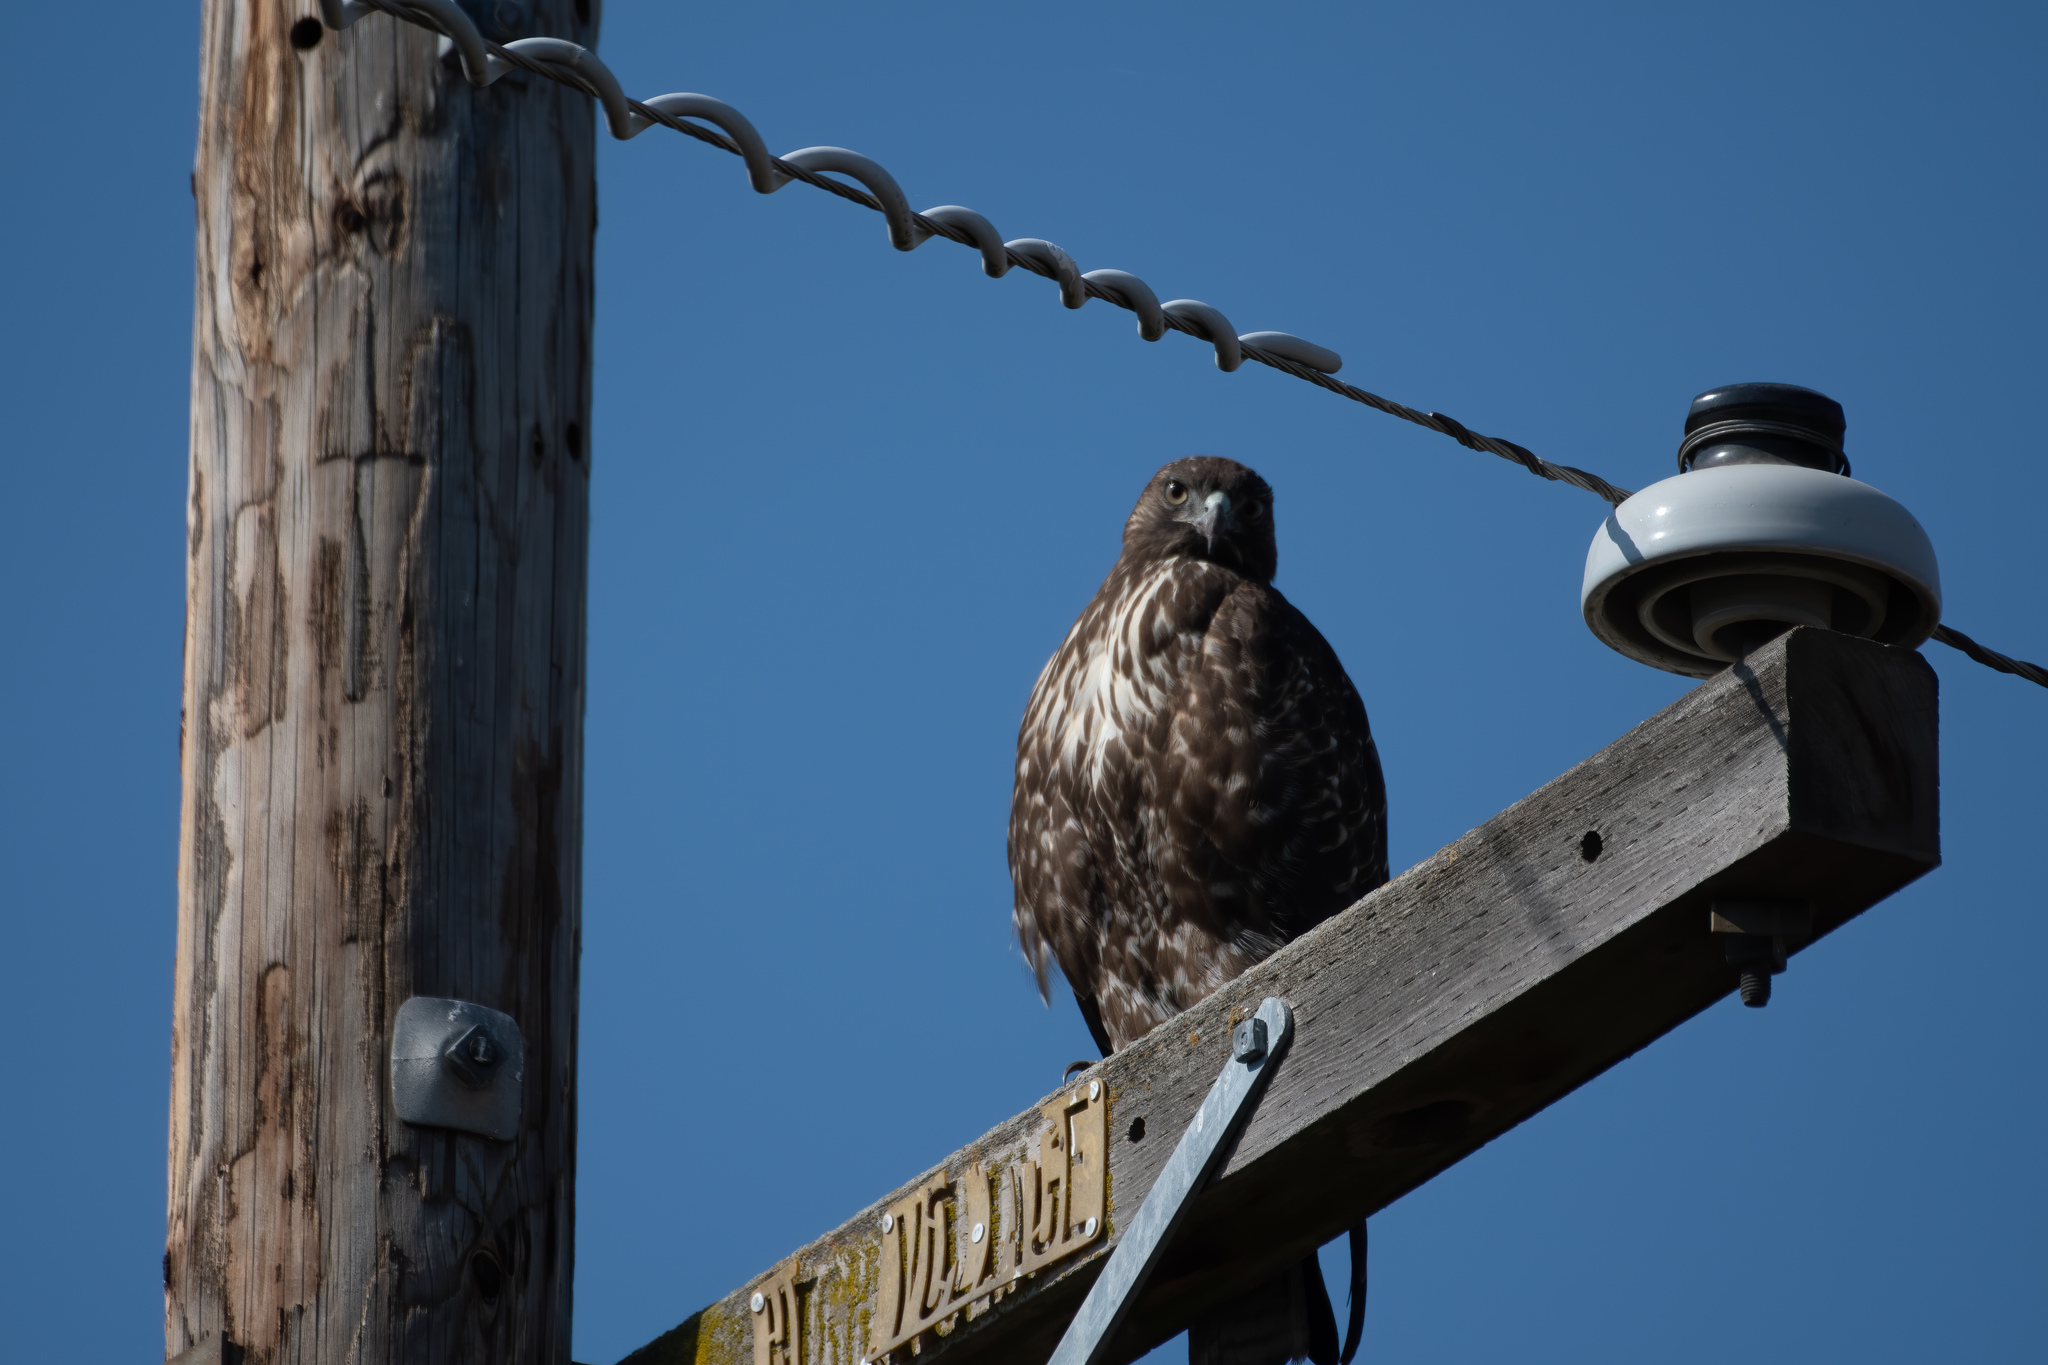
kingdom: Animalia
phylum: Chordata
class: Aves
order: Accipitriformes
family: Accipitridae
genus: Buteo
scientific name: Buteo jamaicensis
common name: Red-tailed hawk
